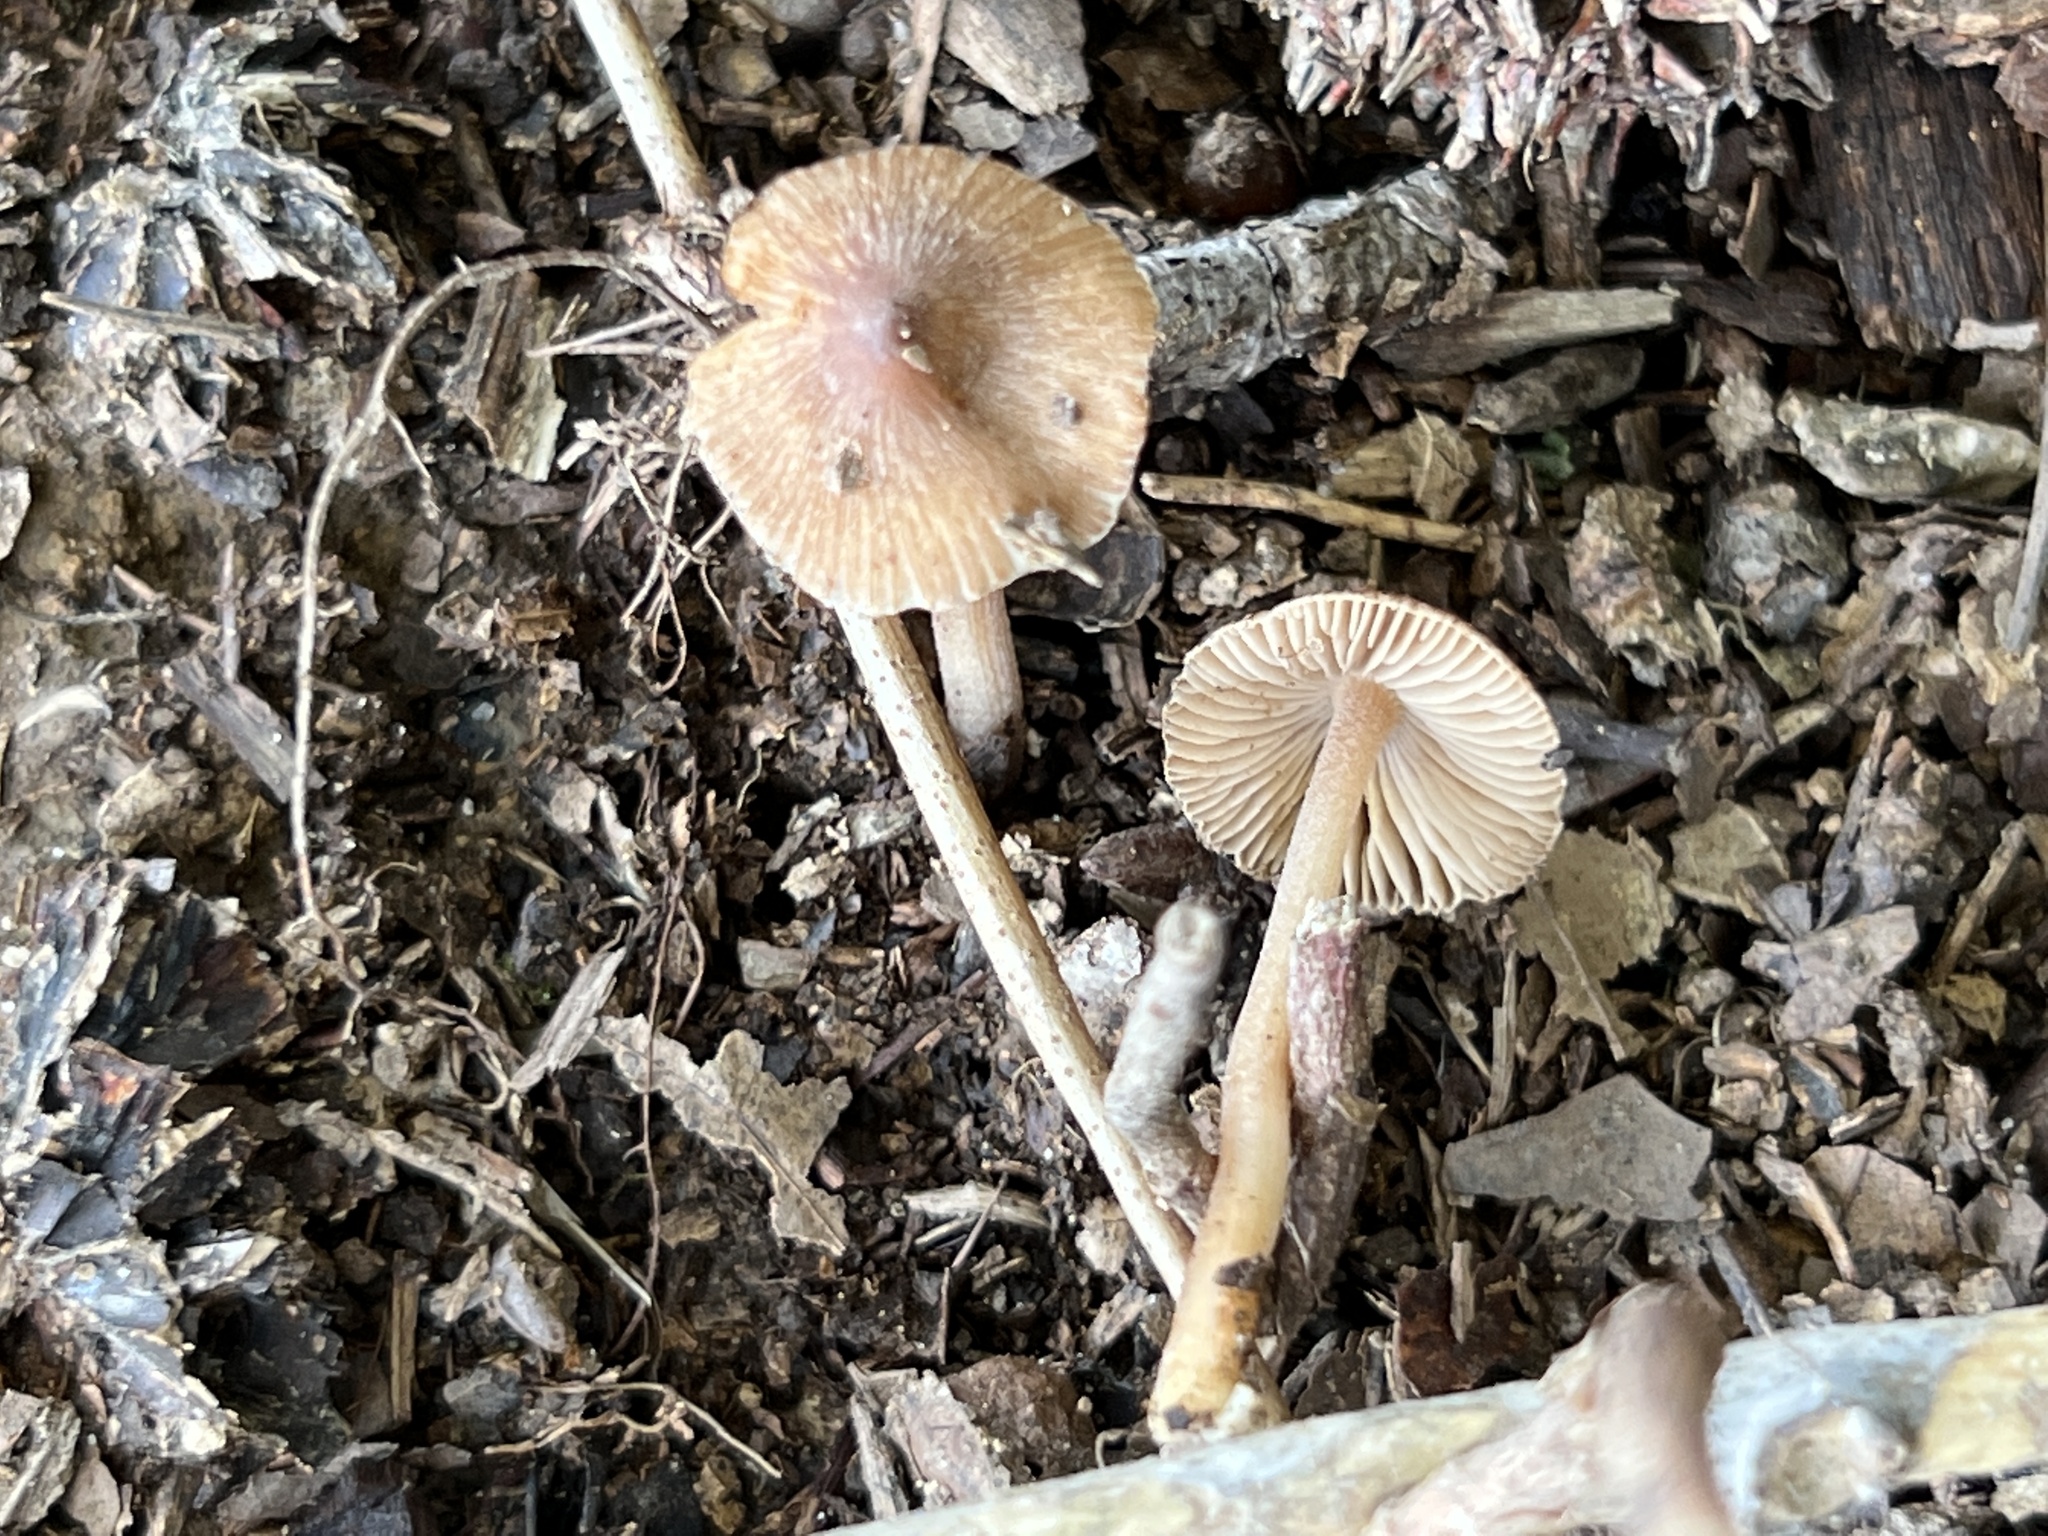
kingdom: Fungi
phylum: Basidiomycota
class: Agaricomycetes
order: Agaricales
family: Inocybaceae
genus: Inocybe
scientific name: Inocybe cicatricata
